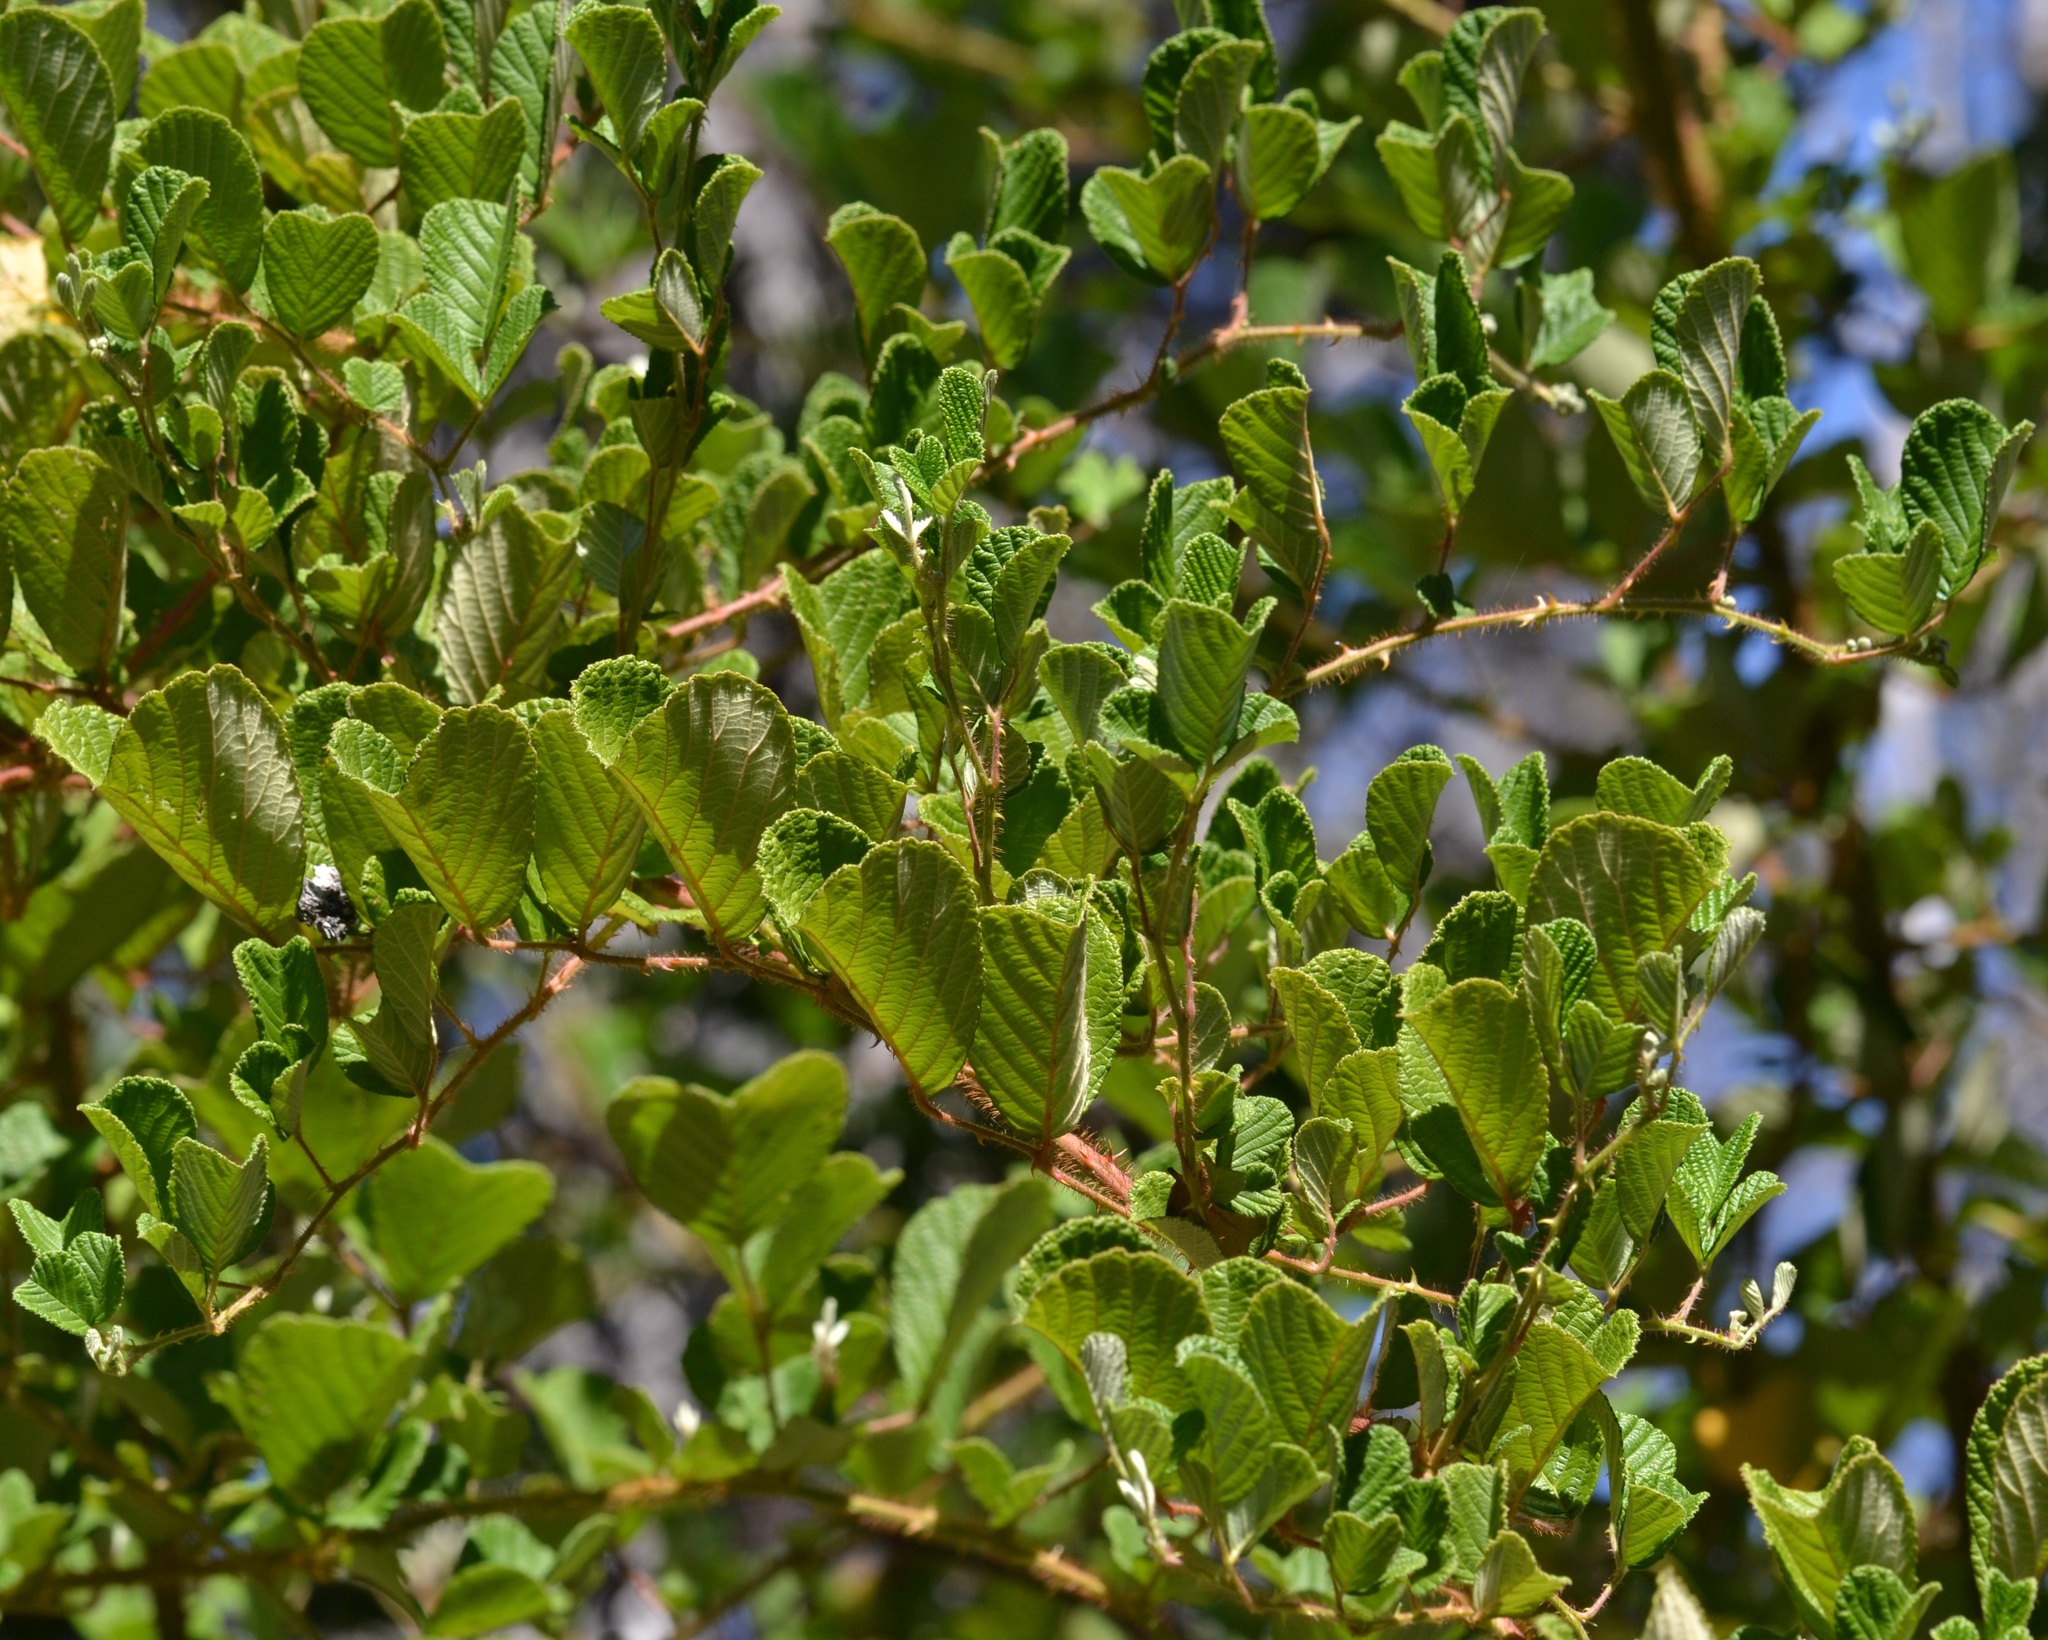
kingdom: Plantae
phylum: Tracheophyta
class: Magnoliopsida
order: Rosales
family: Rosaceae
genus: Rubus
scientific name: Rubus ellipticus
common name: Cheeseberry
